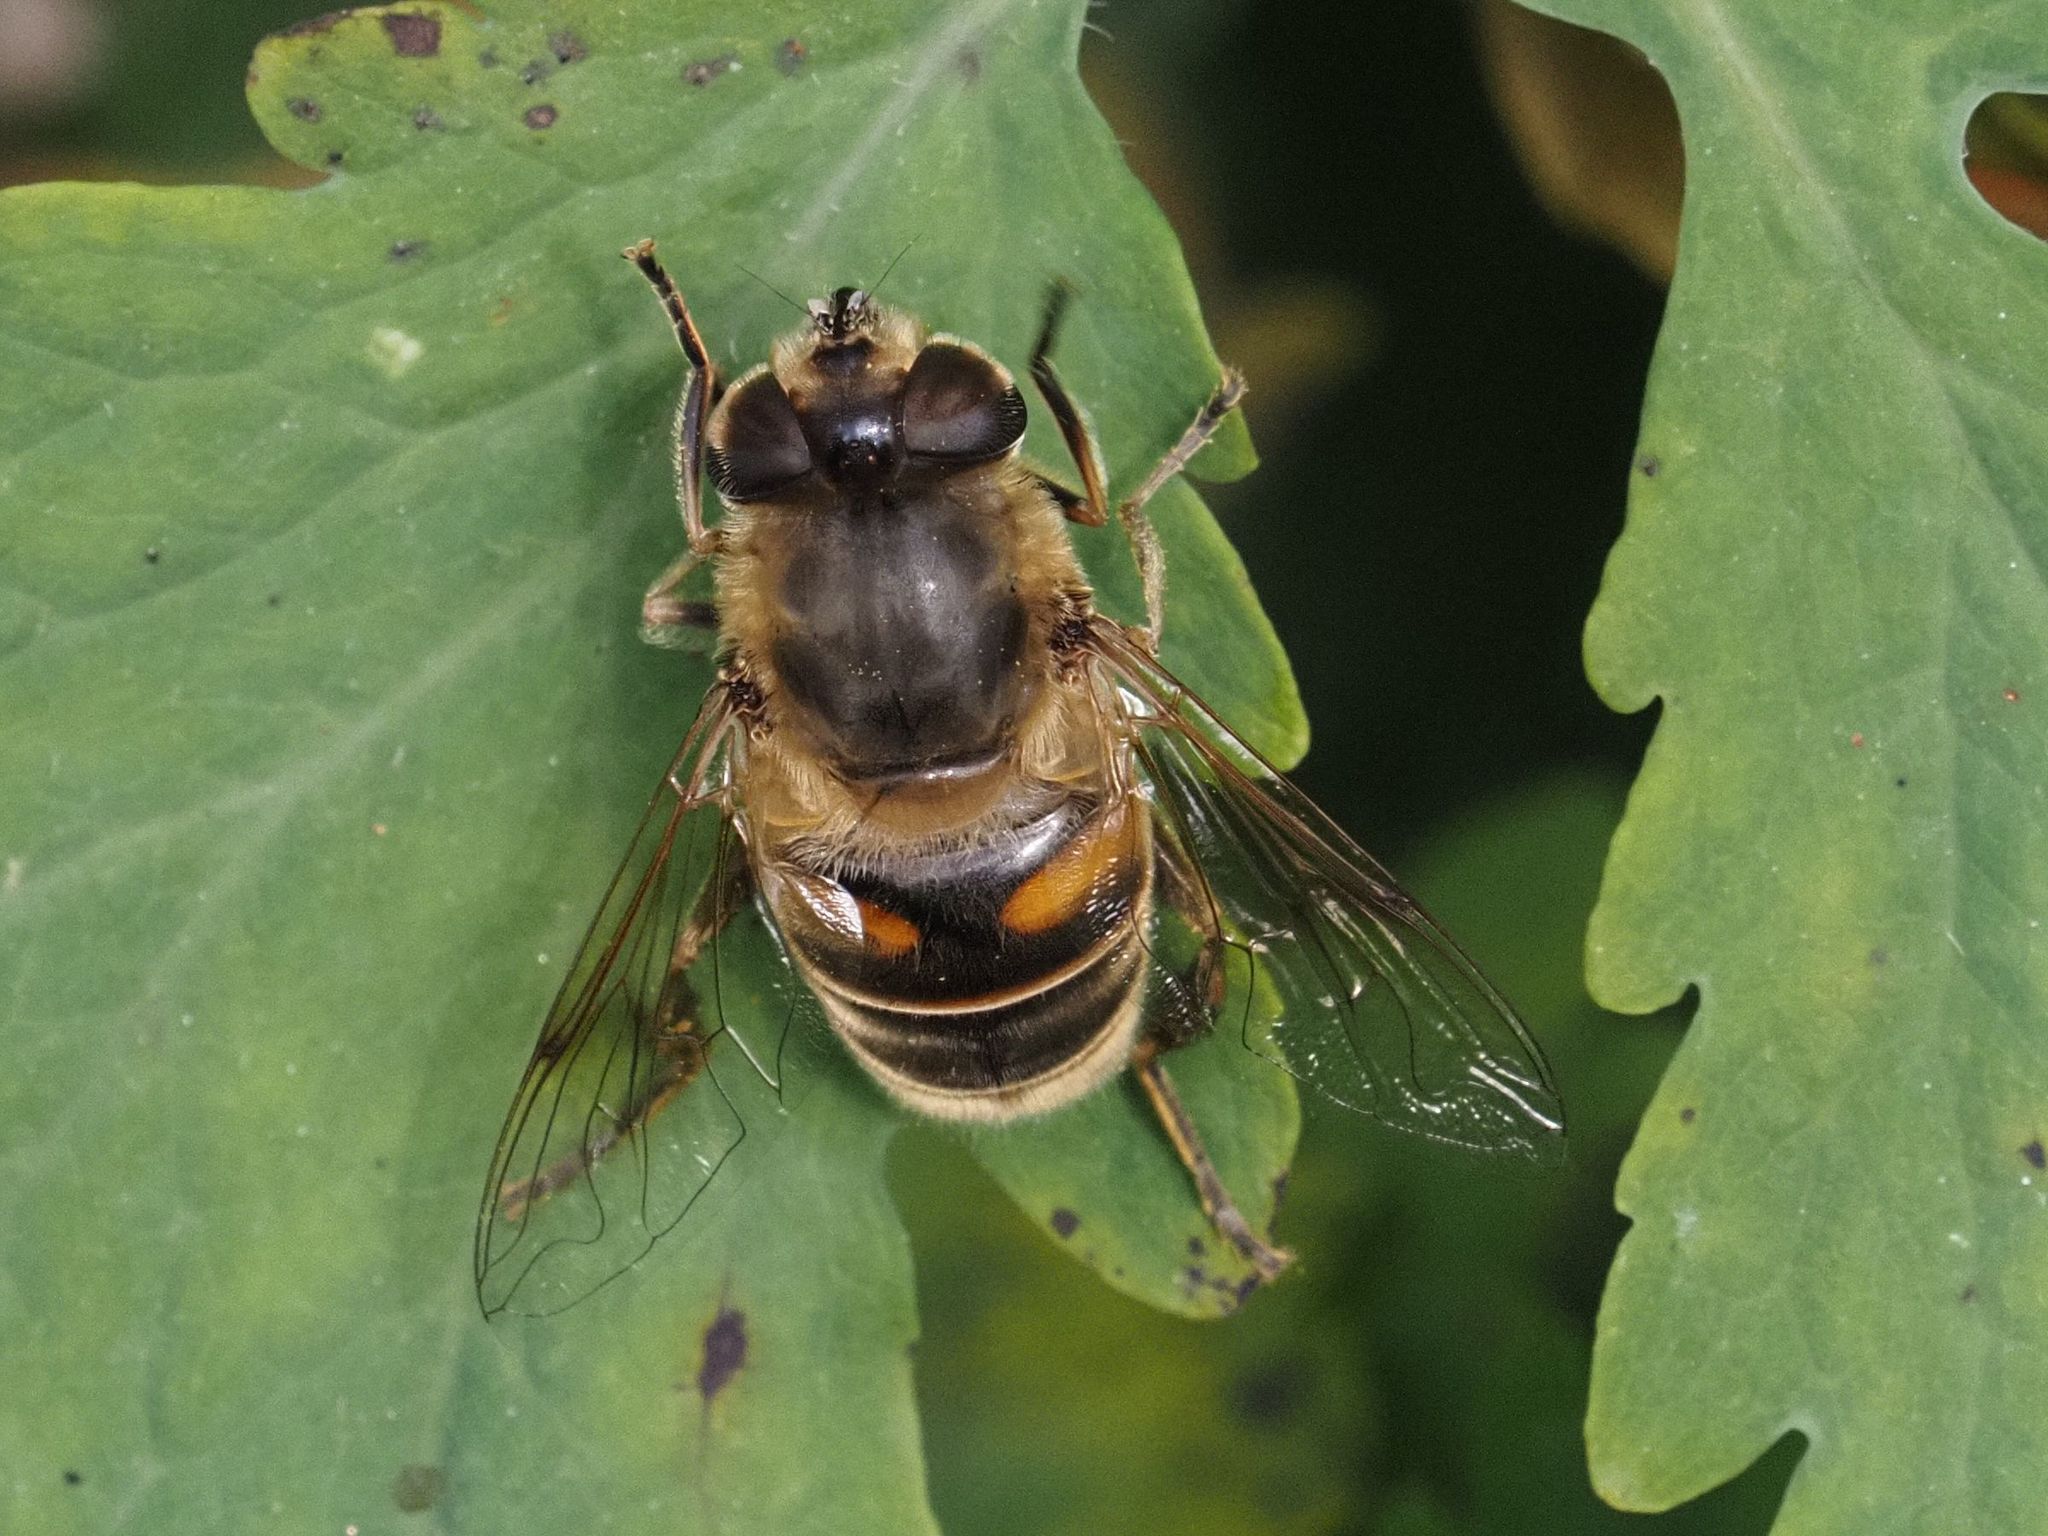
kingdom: Animalia
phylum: Arthropoda
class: Insecta
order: Diptera
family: Syrphidae
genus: Eristalis
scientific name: Eristalis tenax
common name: Drone fly
